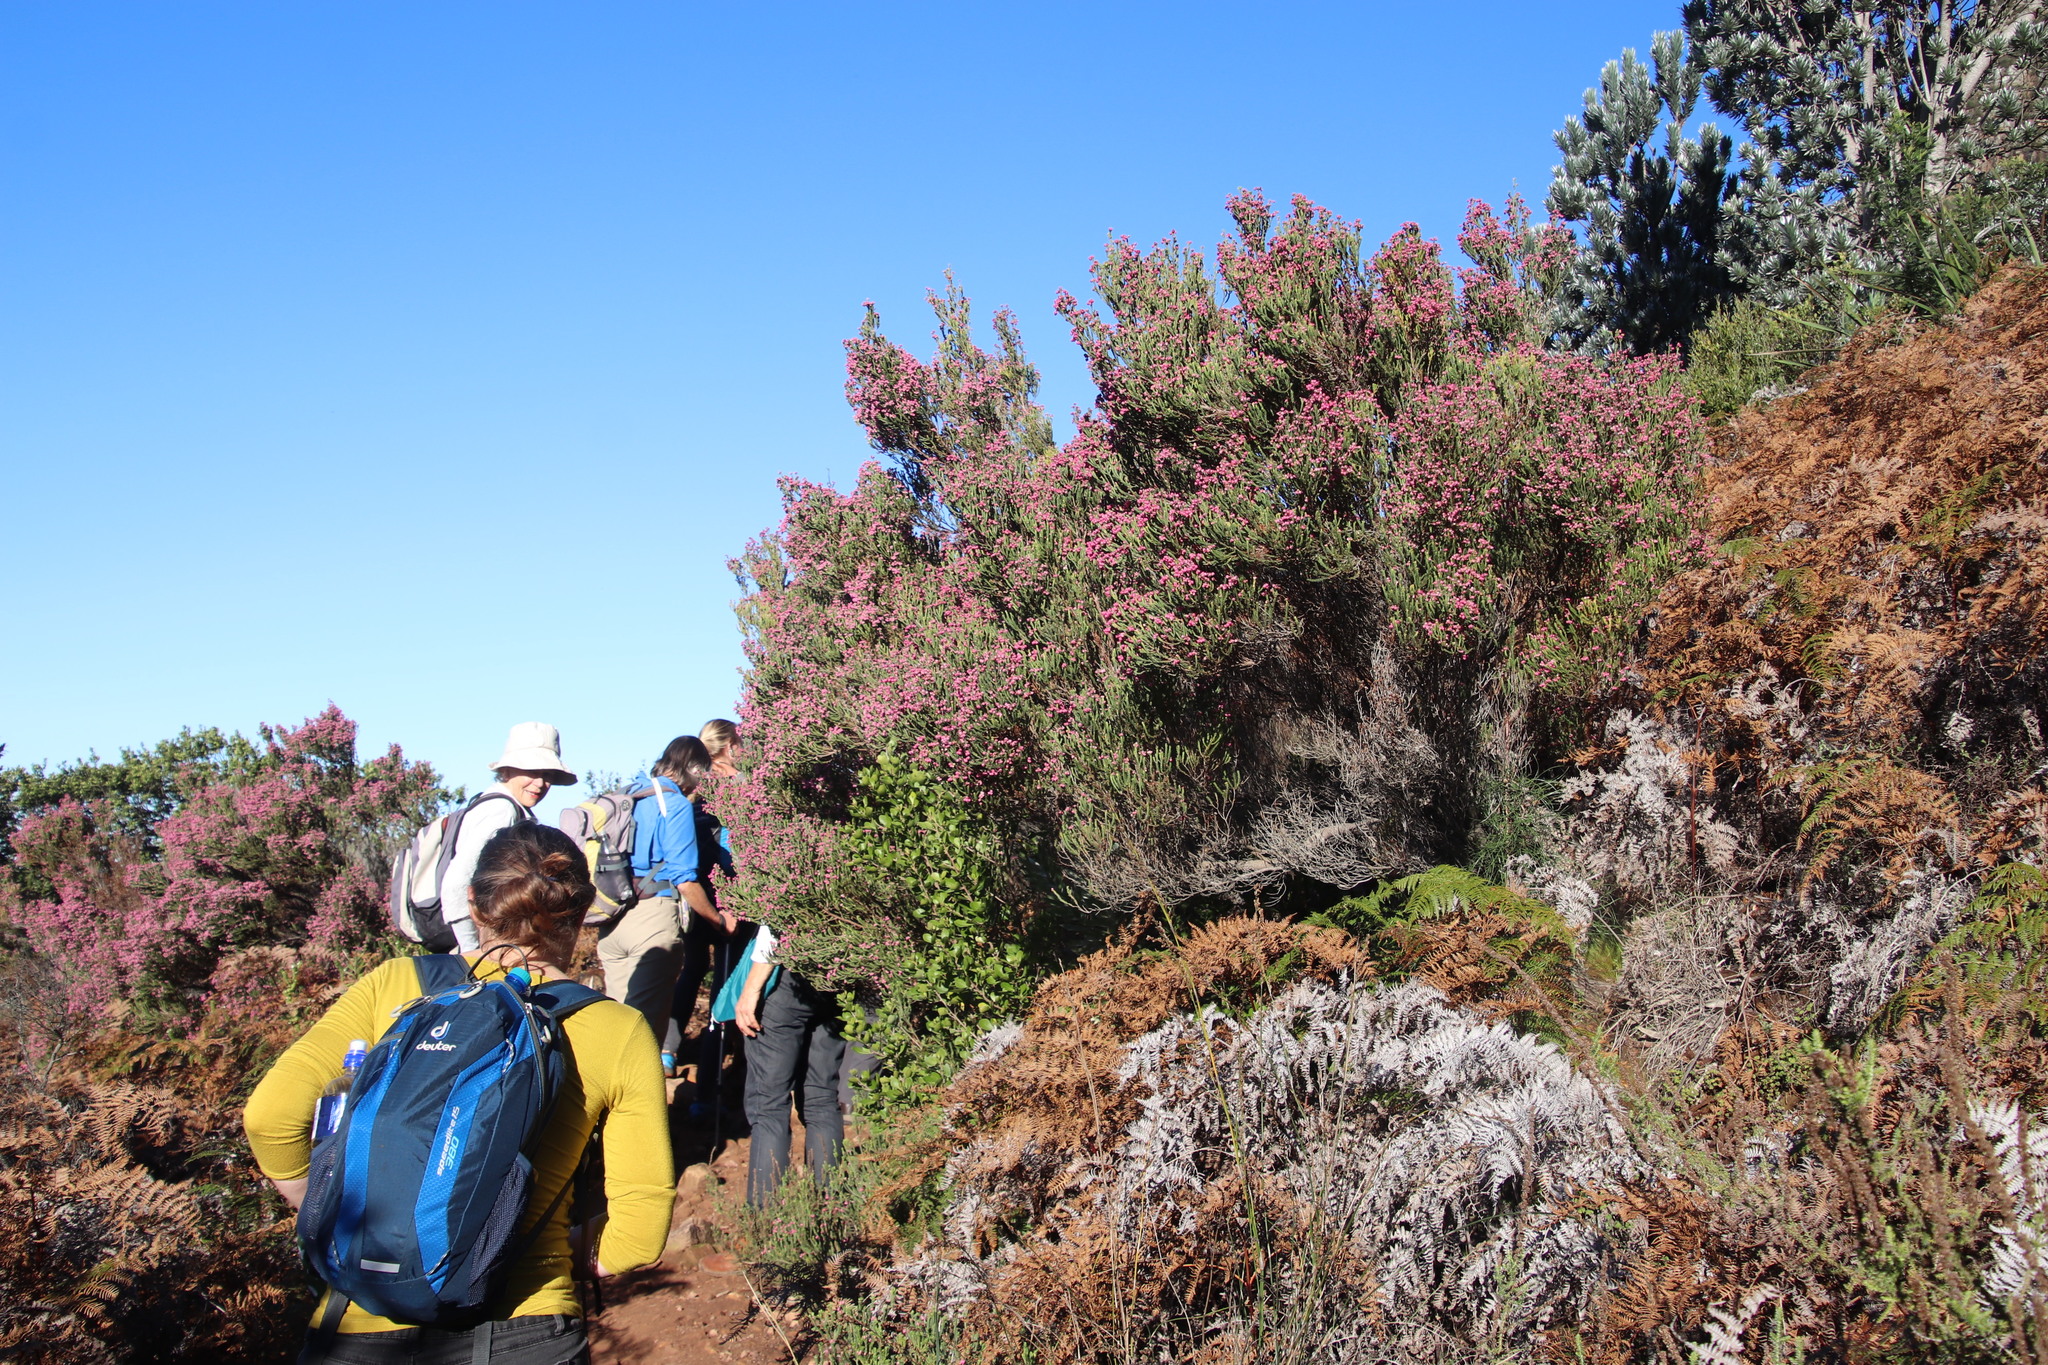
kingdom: Plantae
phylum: Tracheophyta
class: Magnoliopsida
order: Ericales
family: Ericaceae
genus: Erica
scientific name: Erica baccans
